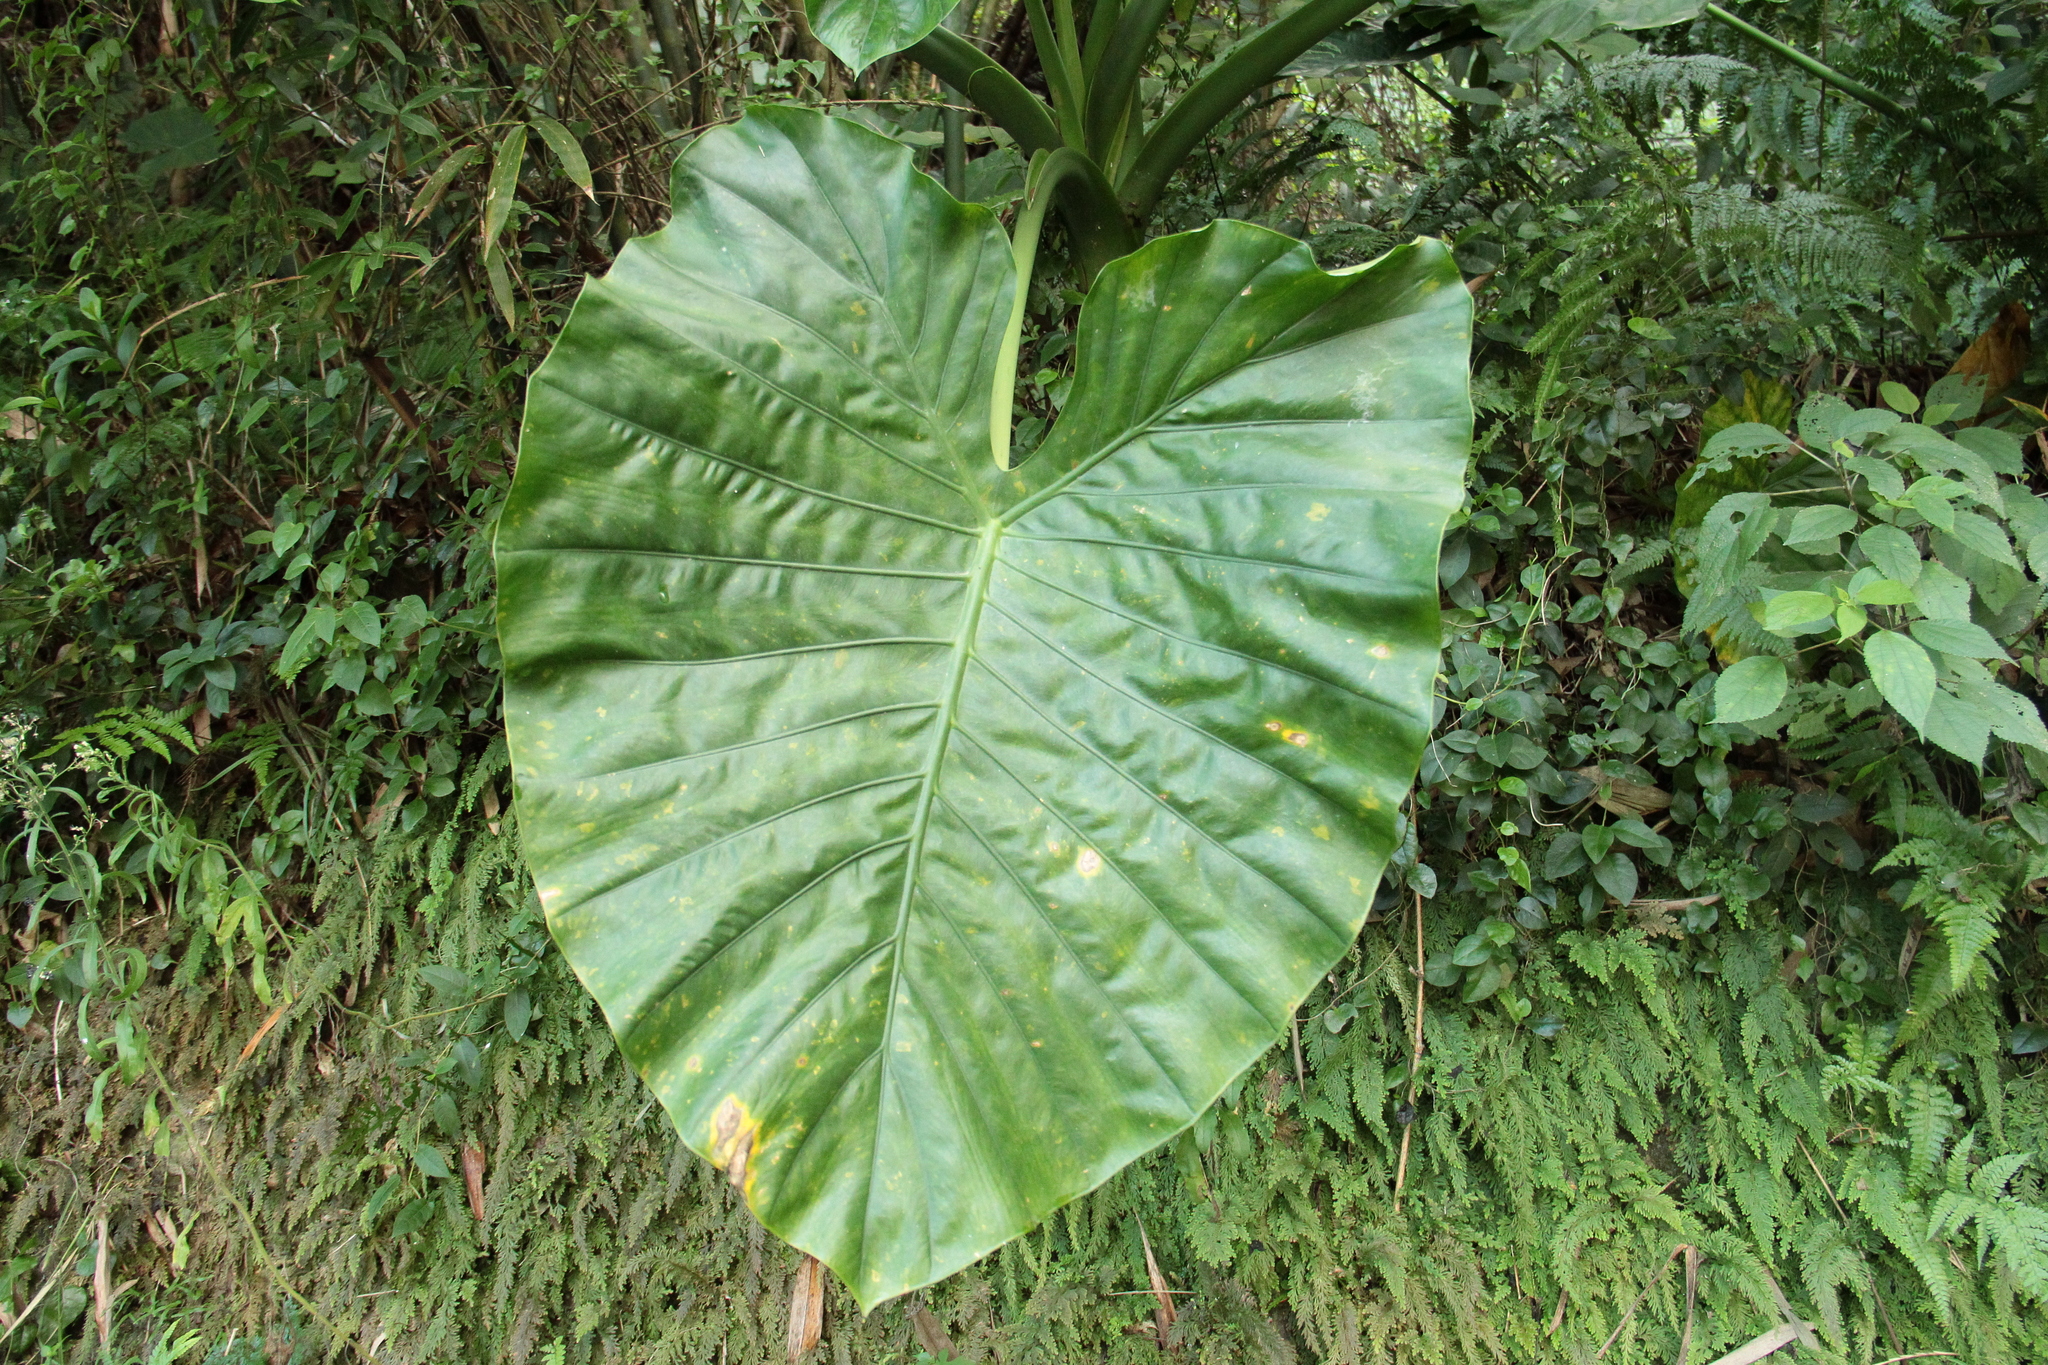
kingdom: Plantae
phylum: Tracheophyta
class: Liliopsida
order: Alismatales
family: Araceae
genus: Alocasia
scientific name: Alocasia odora
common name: Asian taro
